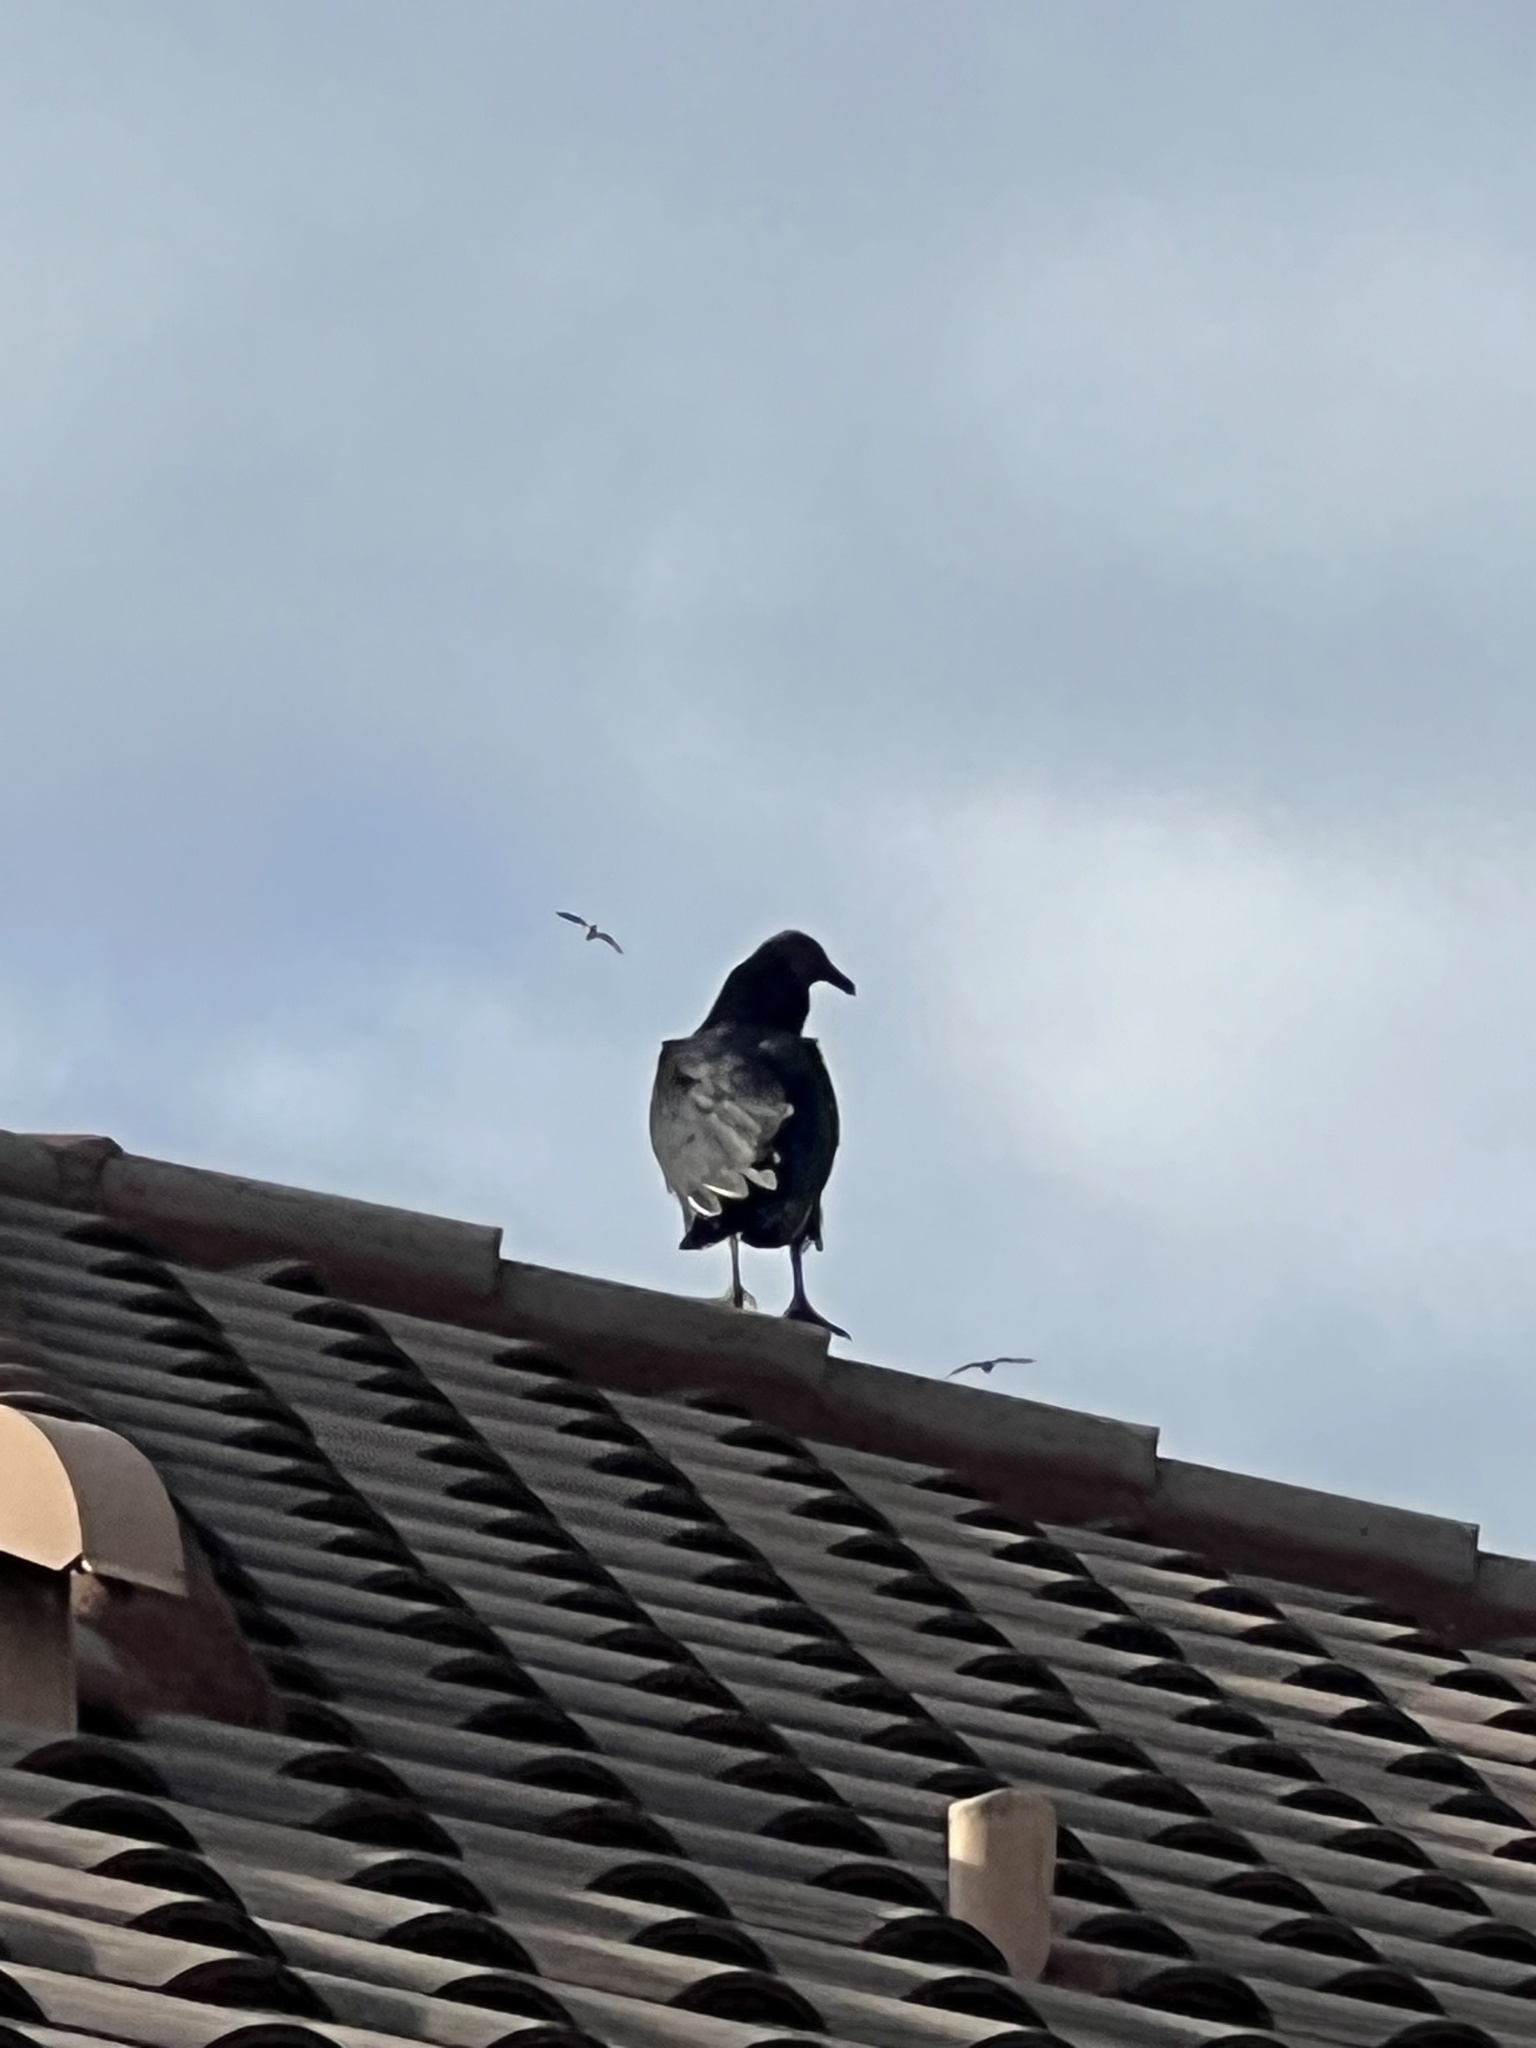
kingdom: Animalia
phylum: Chordata
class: Aves
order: Accipitriformes
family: Cathartidae
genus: Coragyps
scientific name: Coragyps atratus
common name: Black vulture
